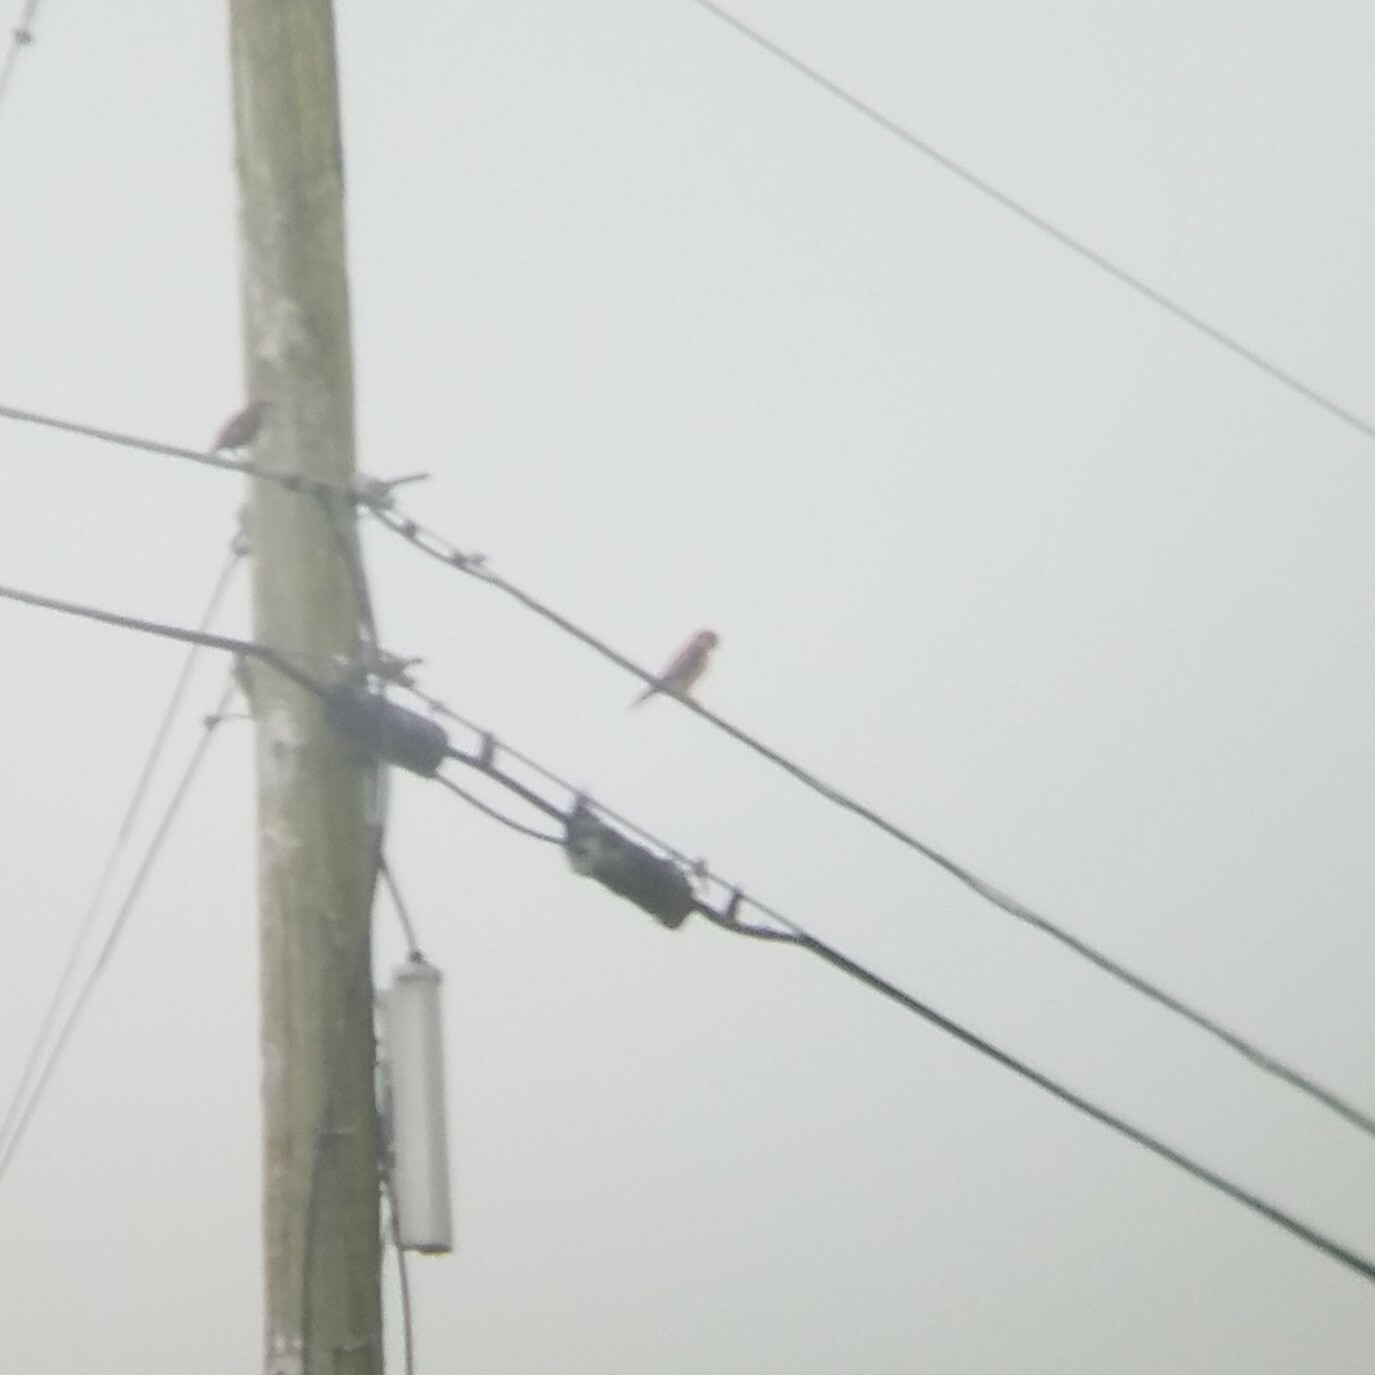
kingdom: Animalia
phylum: Chordata
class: Aves
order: Falconiformes
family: Falconidae
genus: Falco
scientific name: Falco sparverius
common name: American kestrel
